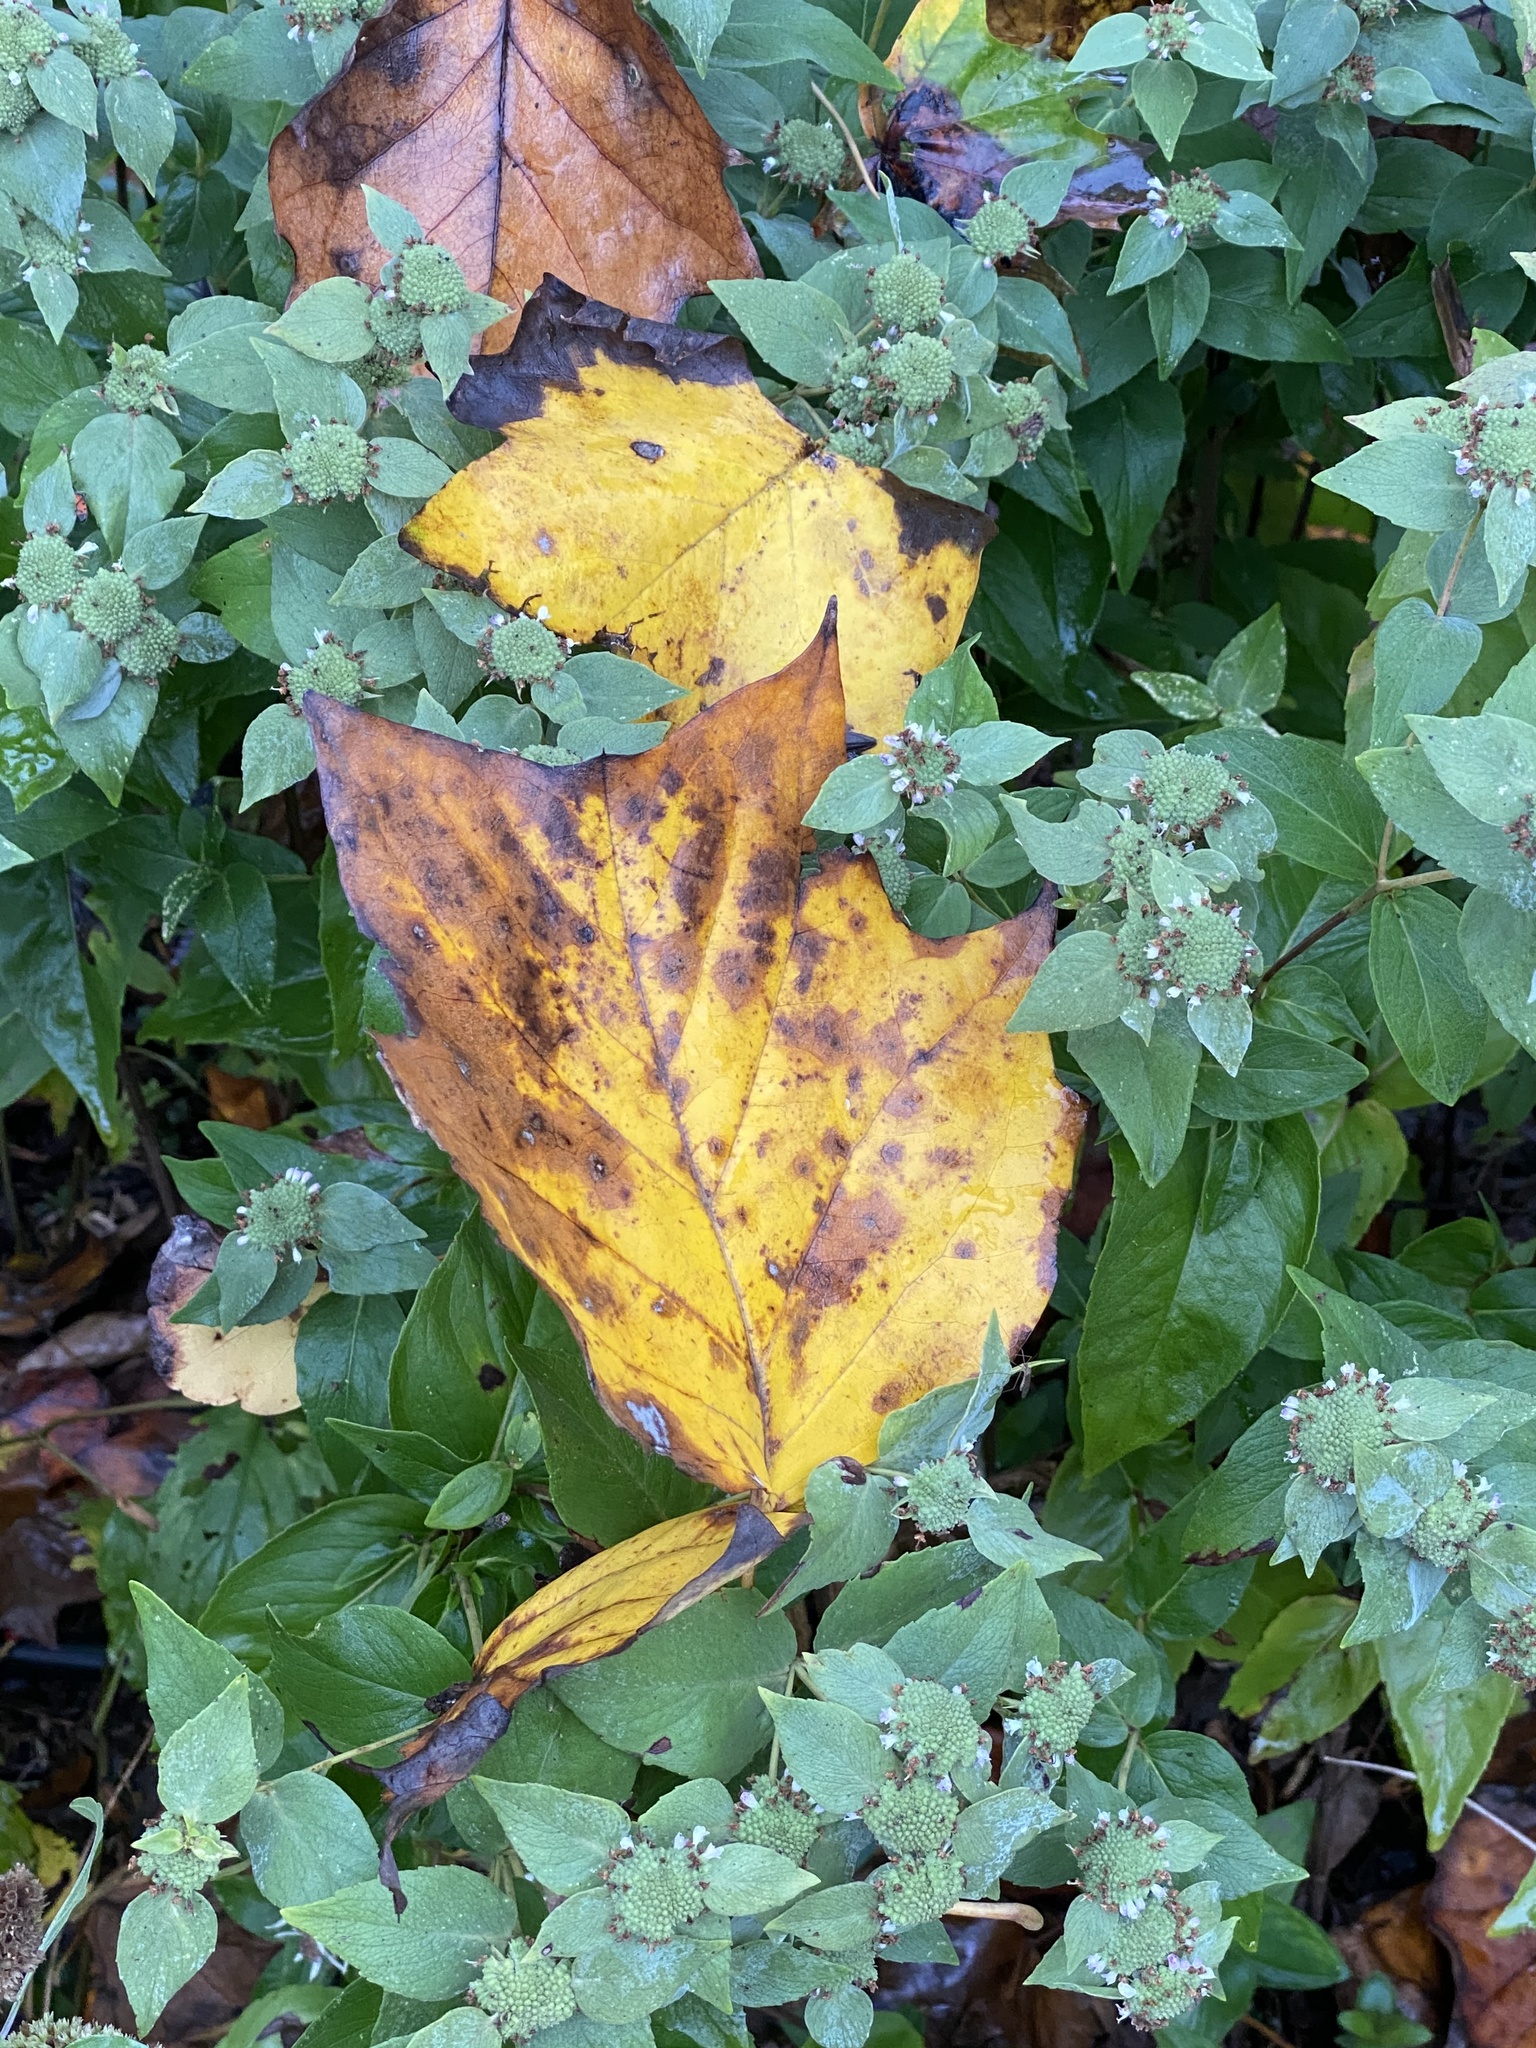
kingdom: Plantae
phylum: Tracheophyta
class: Magnoliopsida
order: Magnoliales
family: Magnoliaceae
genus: Liriodendron
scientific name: Liriodendron tulipifera
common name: Tulip tree
